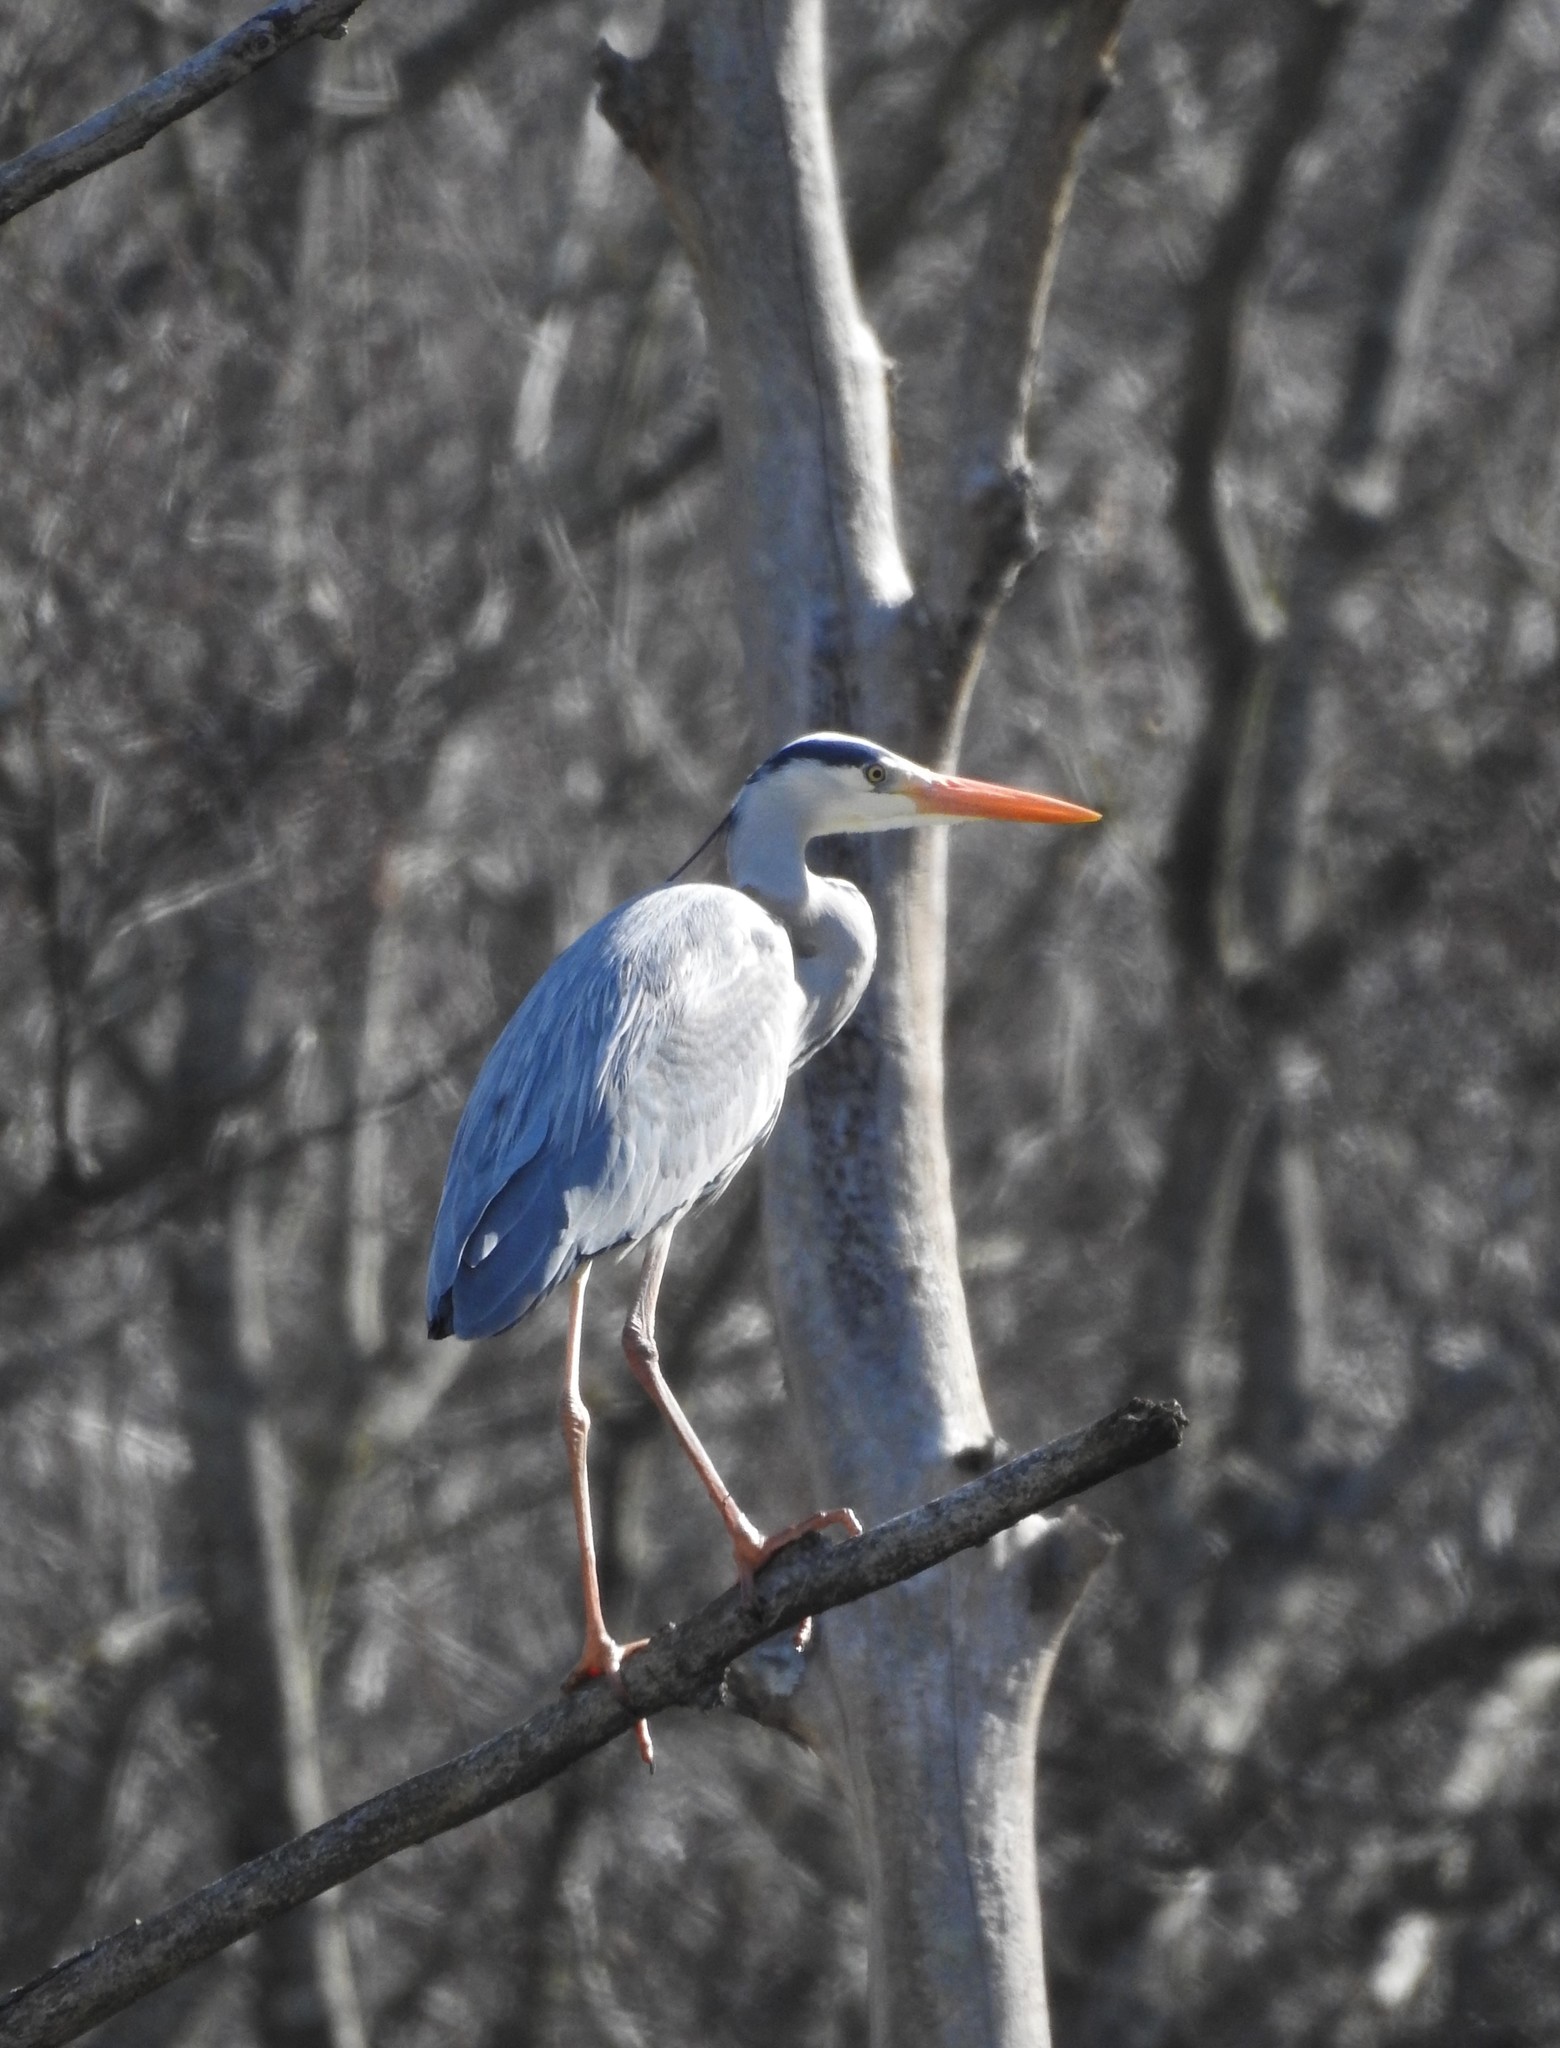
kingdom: Animalia
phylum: Chordata
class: Aves
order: Pelecaniformes
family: Ardeidae
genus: Ardea
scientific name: Ardea cinerea
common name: Grey heron
